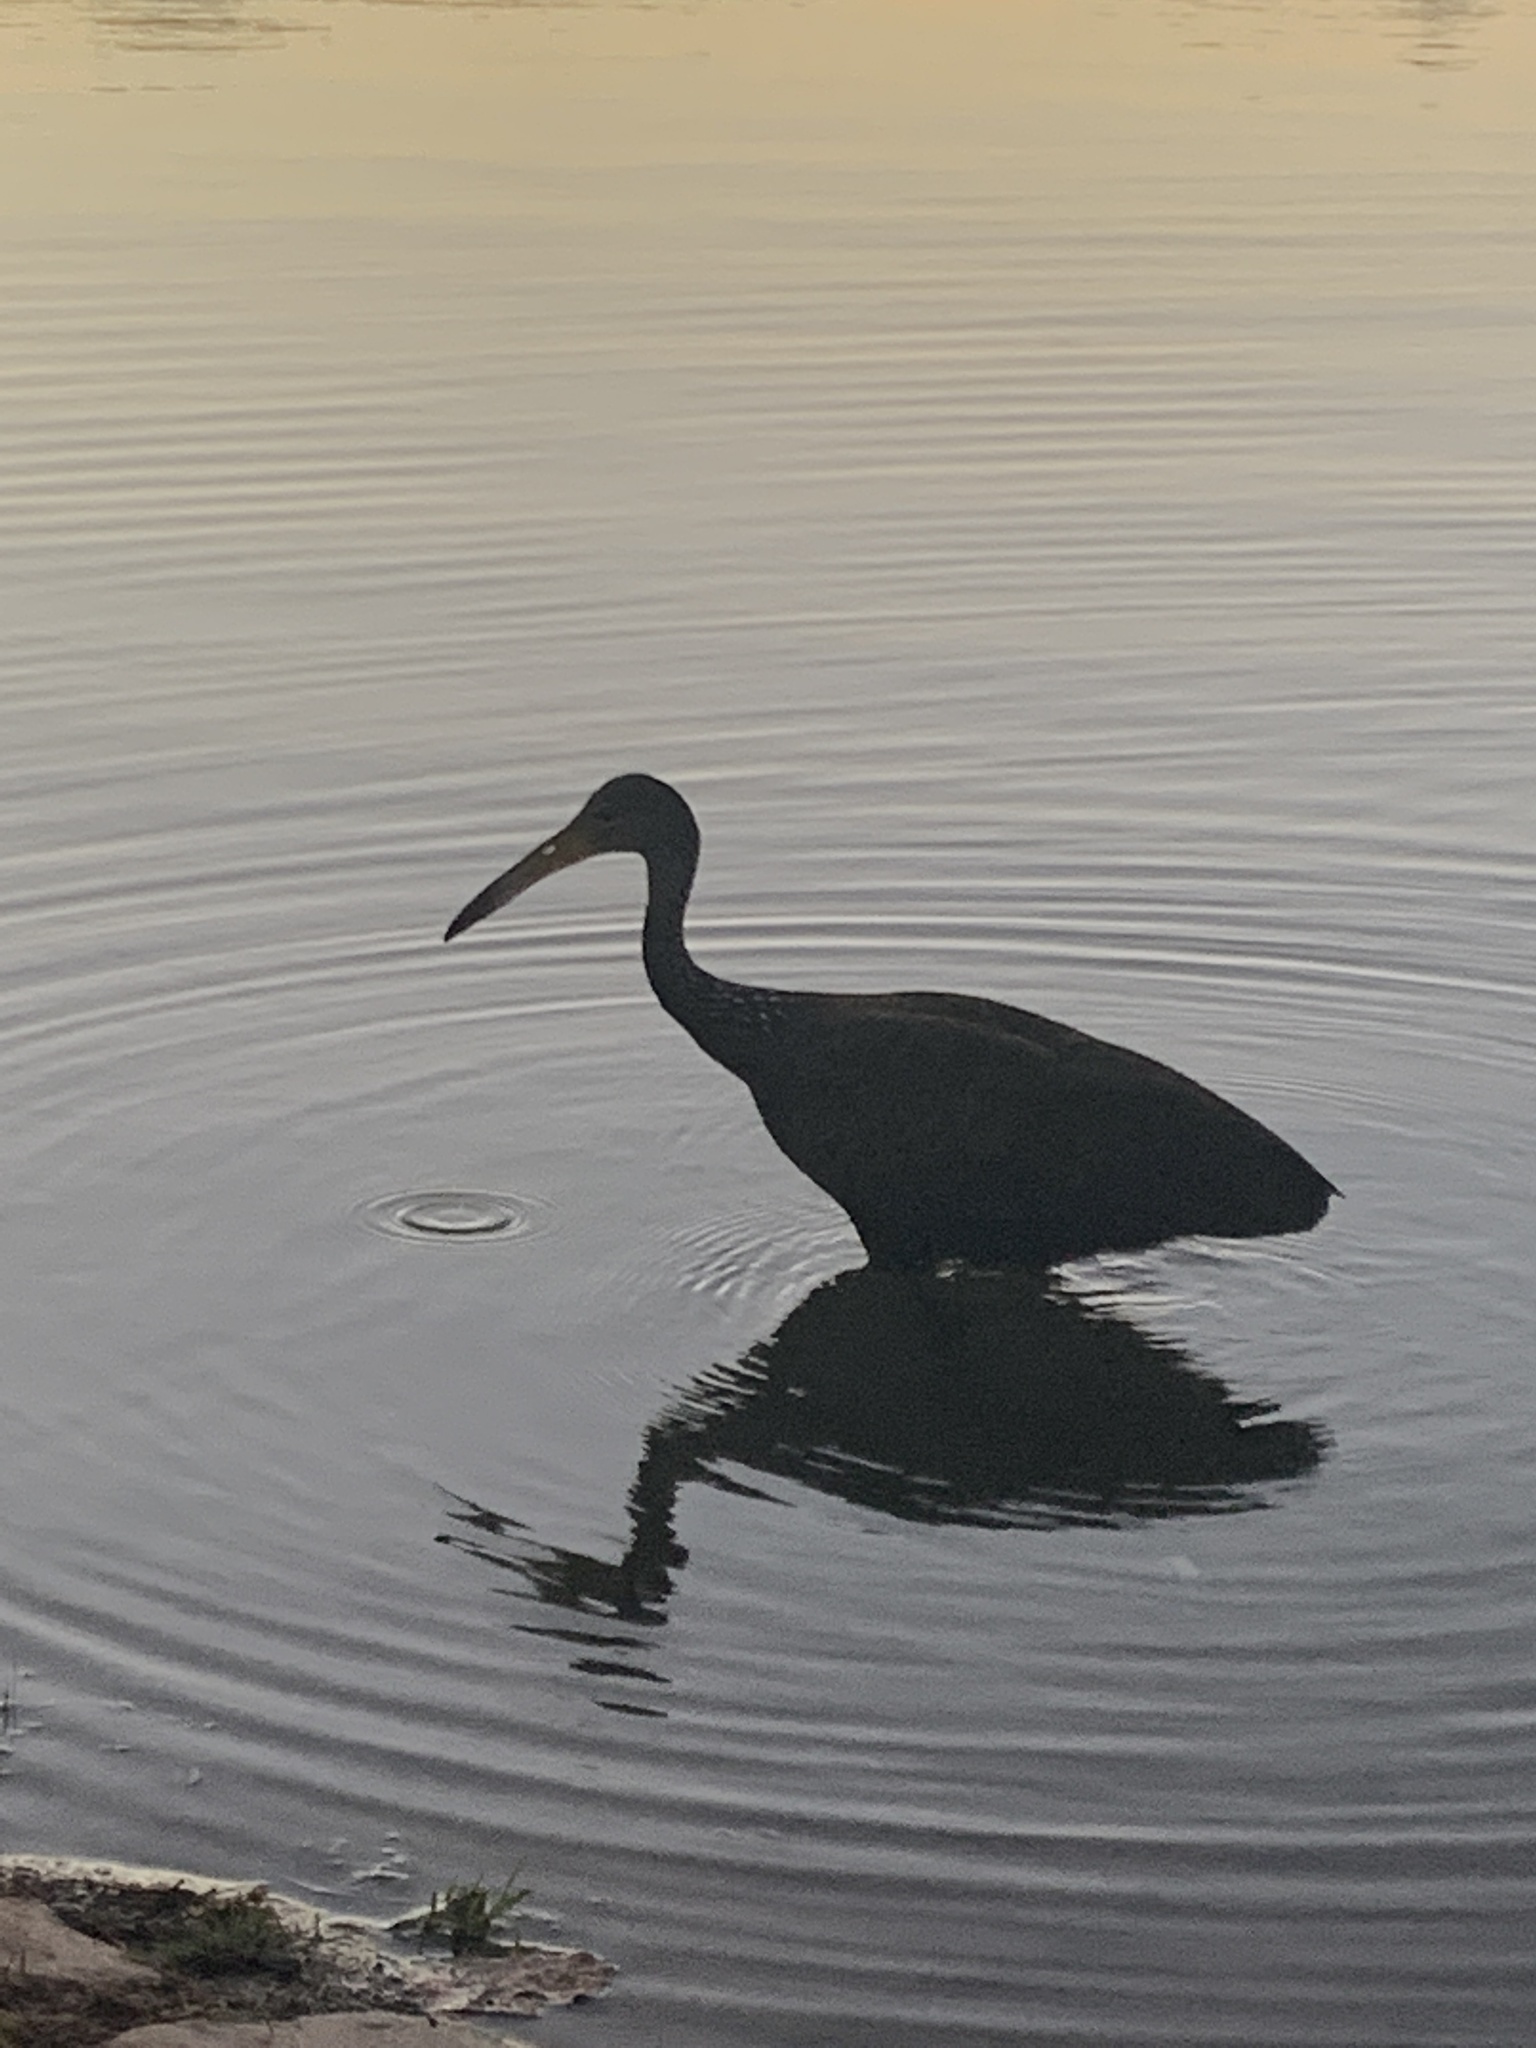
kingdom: Animalia
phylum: Chordata
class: Aves
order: Gruiformes
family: Aramidae
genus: Aramus
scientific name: Aramus guarauna
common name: Limpkin
